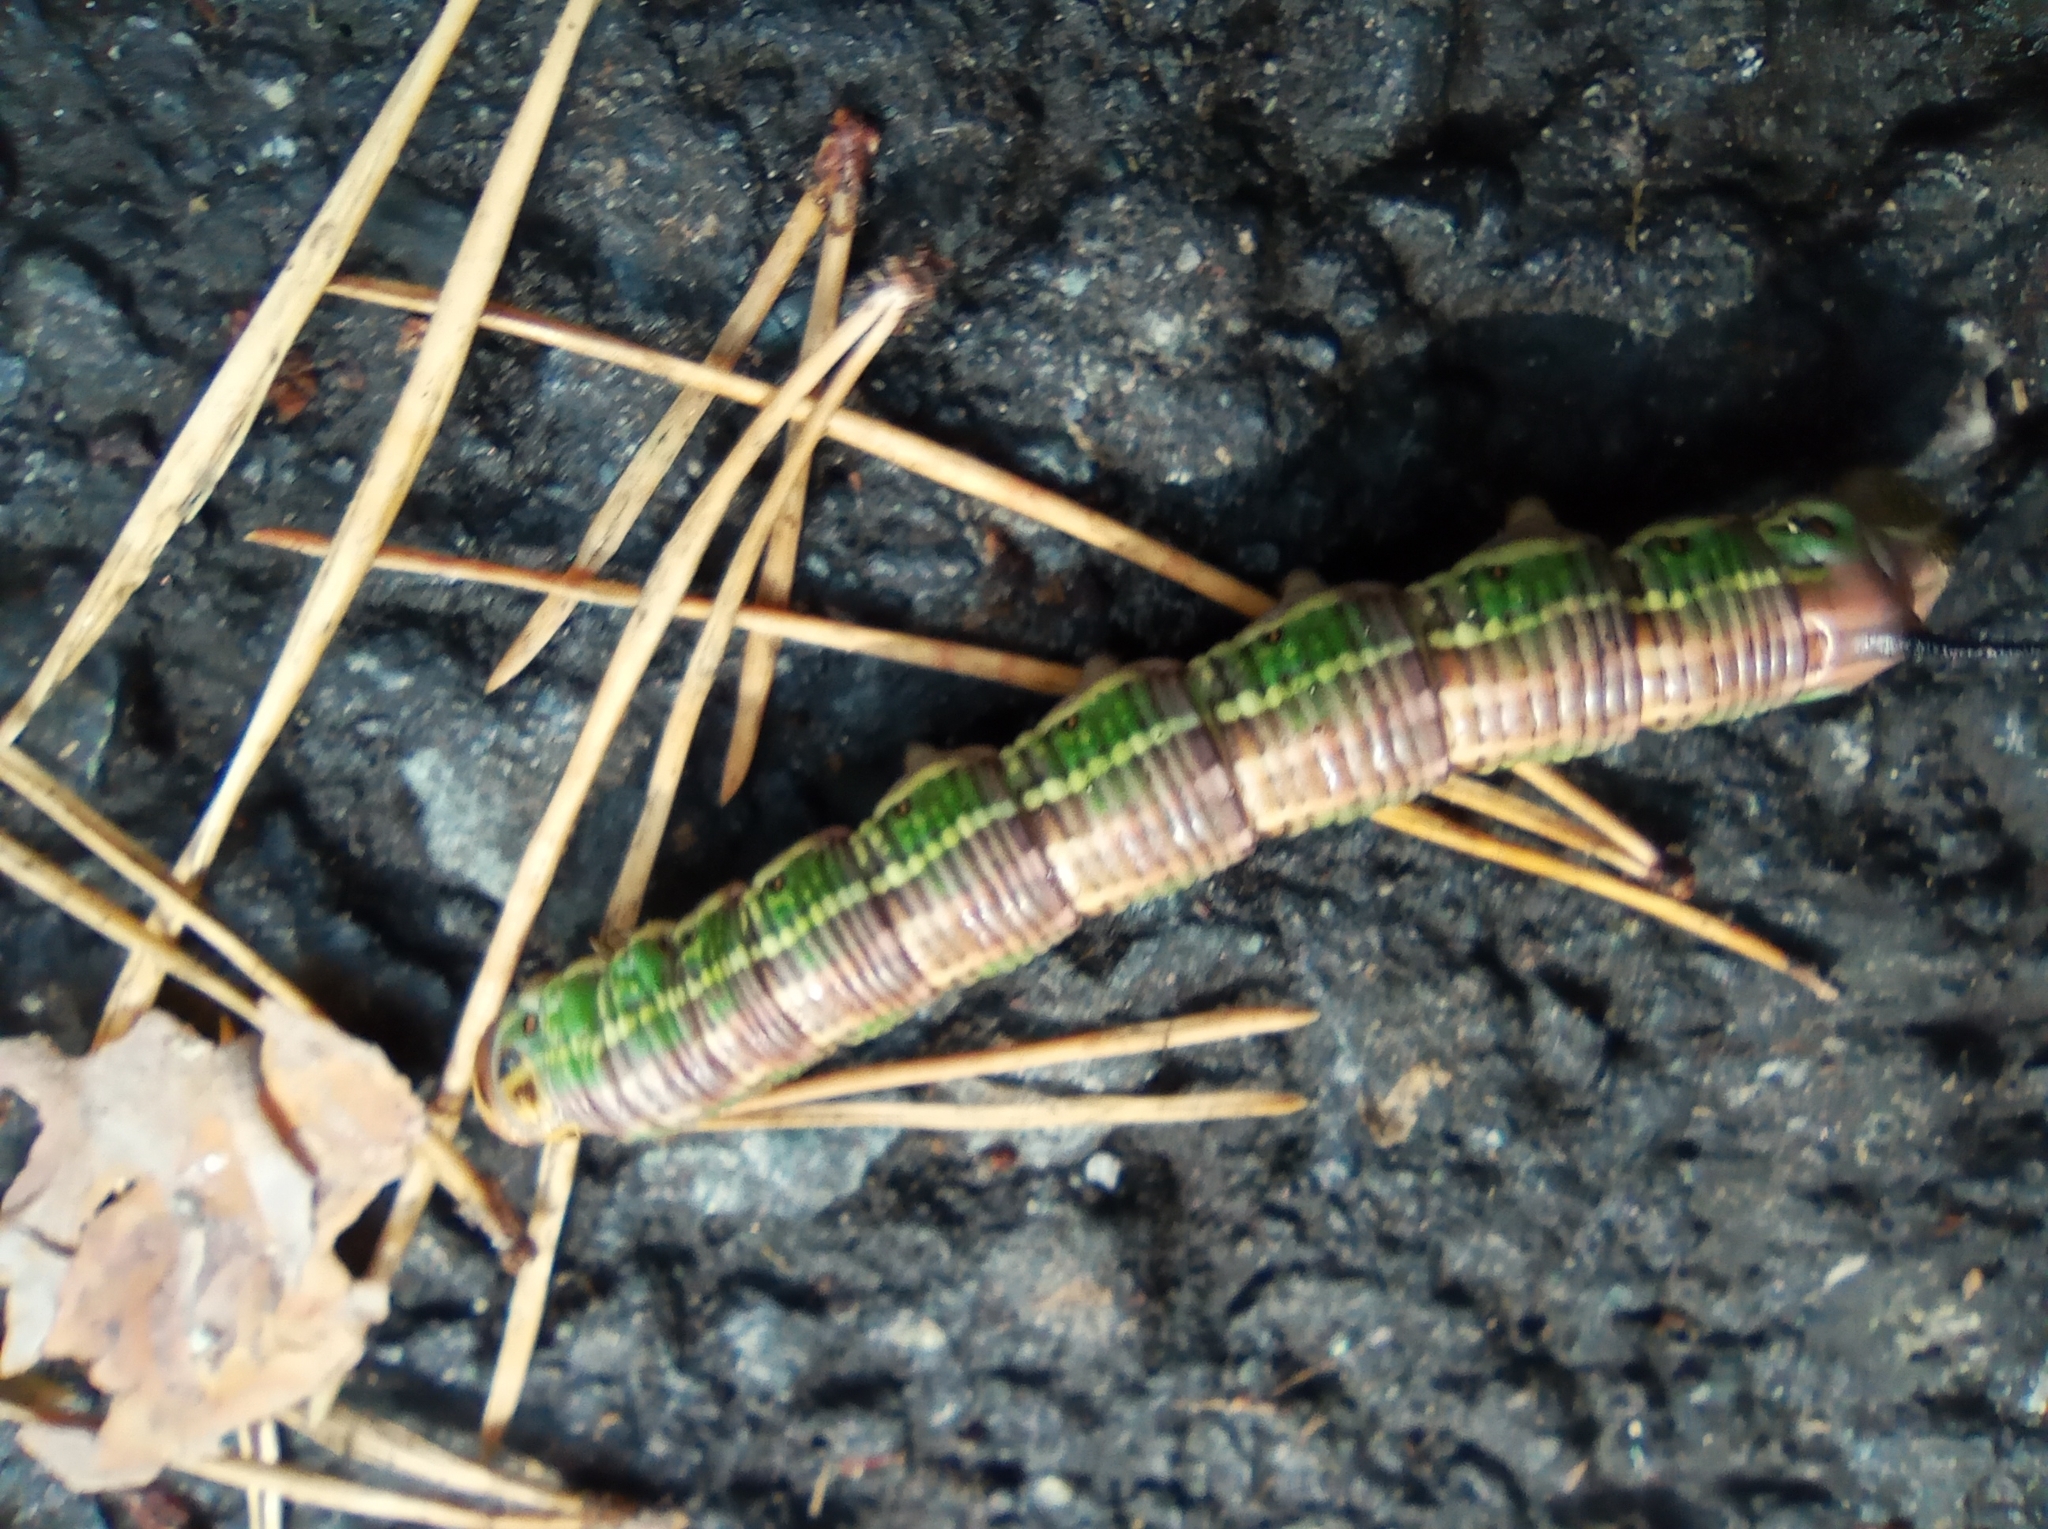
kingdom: Animalia
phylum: Arthropoda
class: Insecta
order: Lepidoptera
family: Sphingidae
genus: Sphinx
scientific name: Sphinx pinastri
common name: Pine hawk-moth
